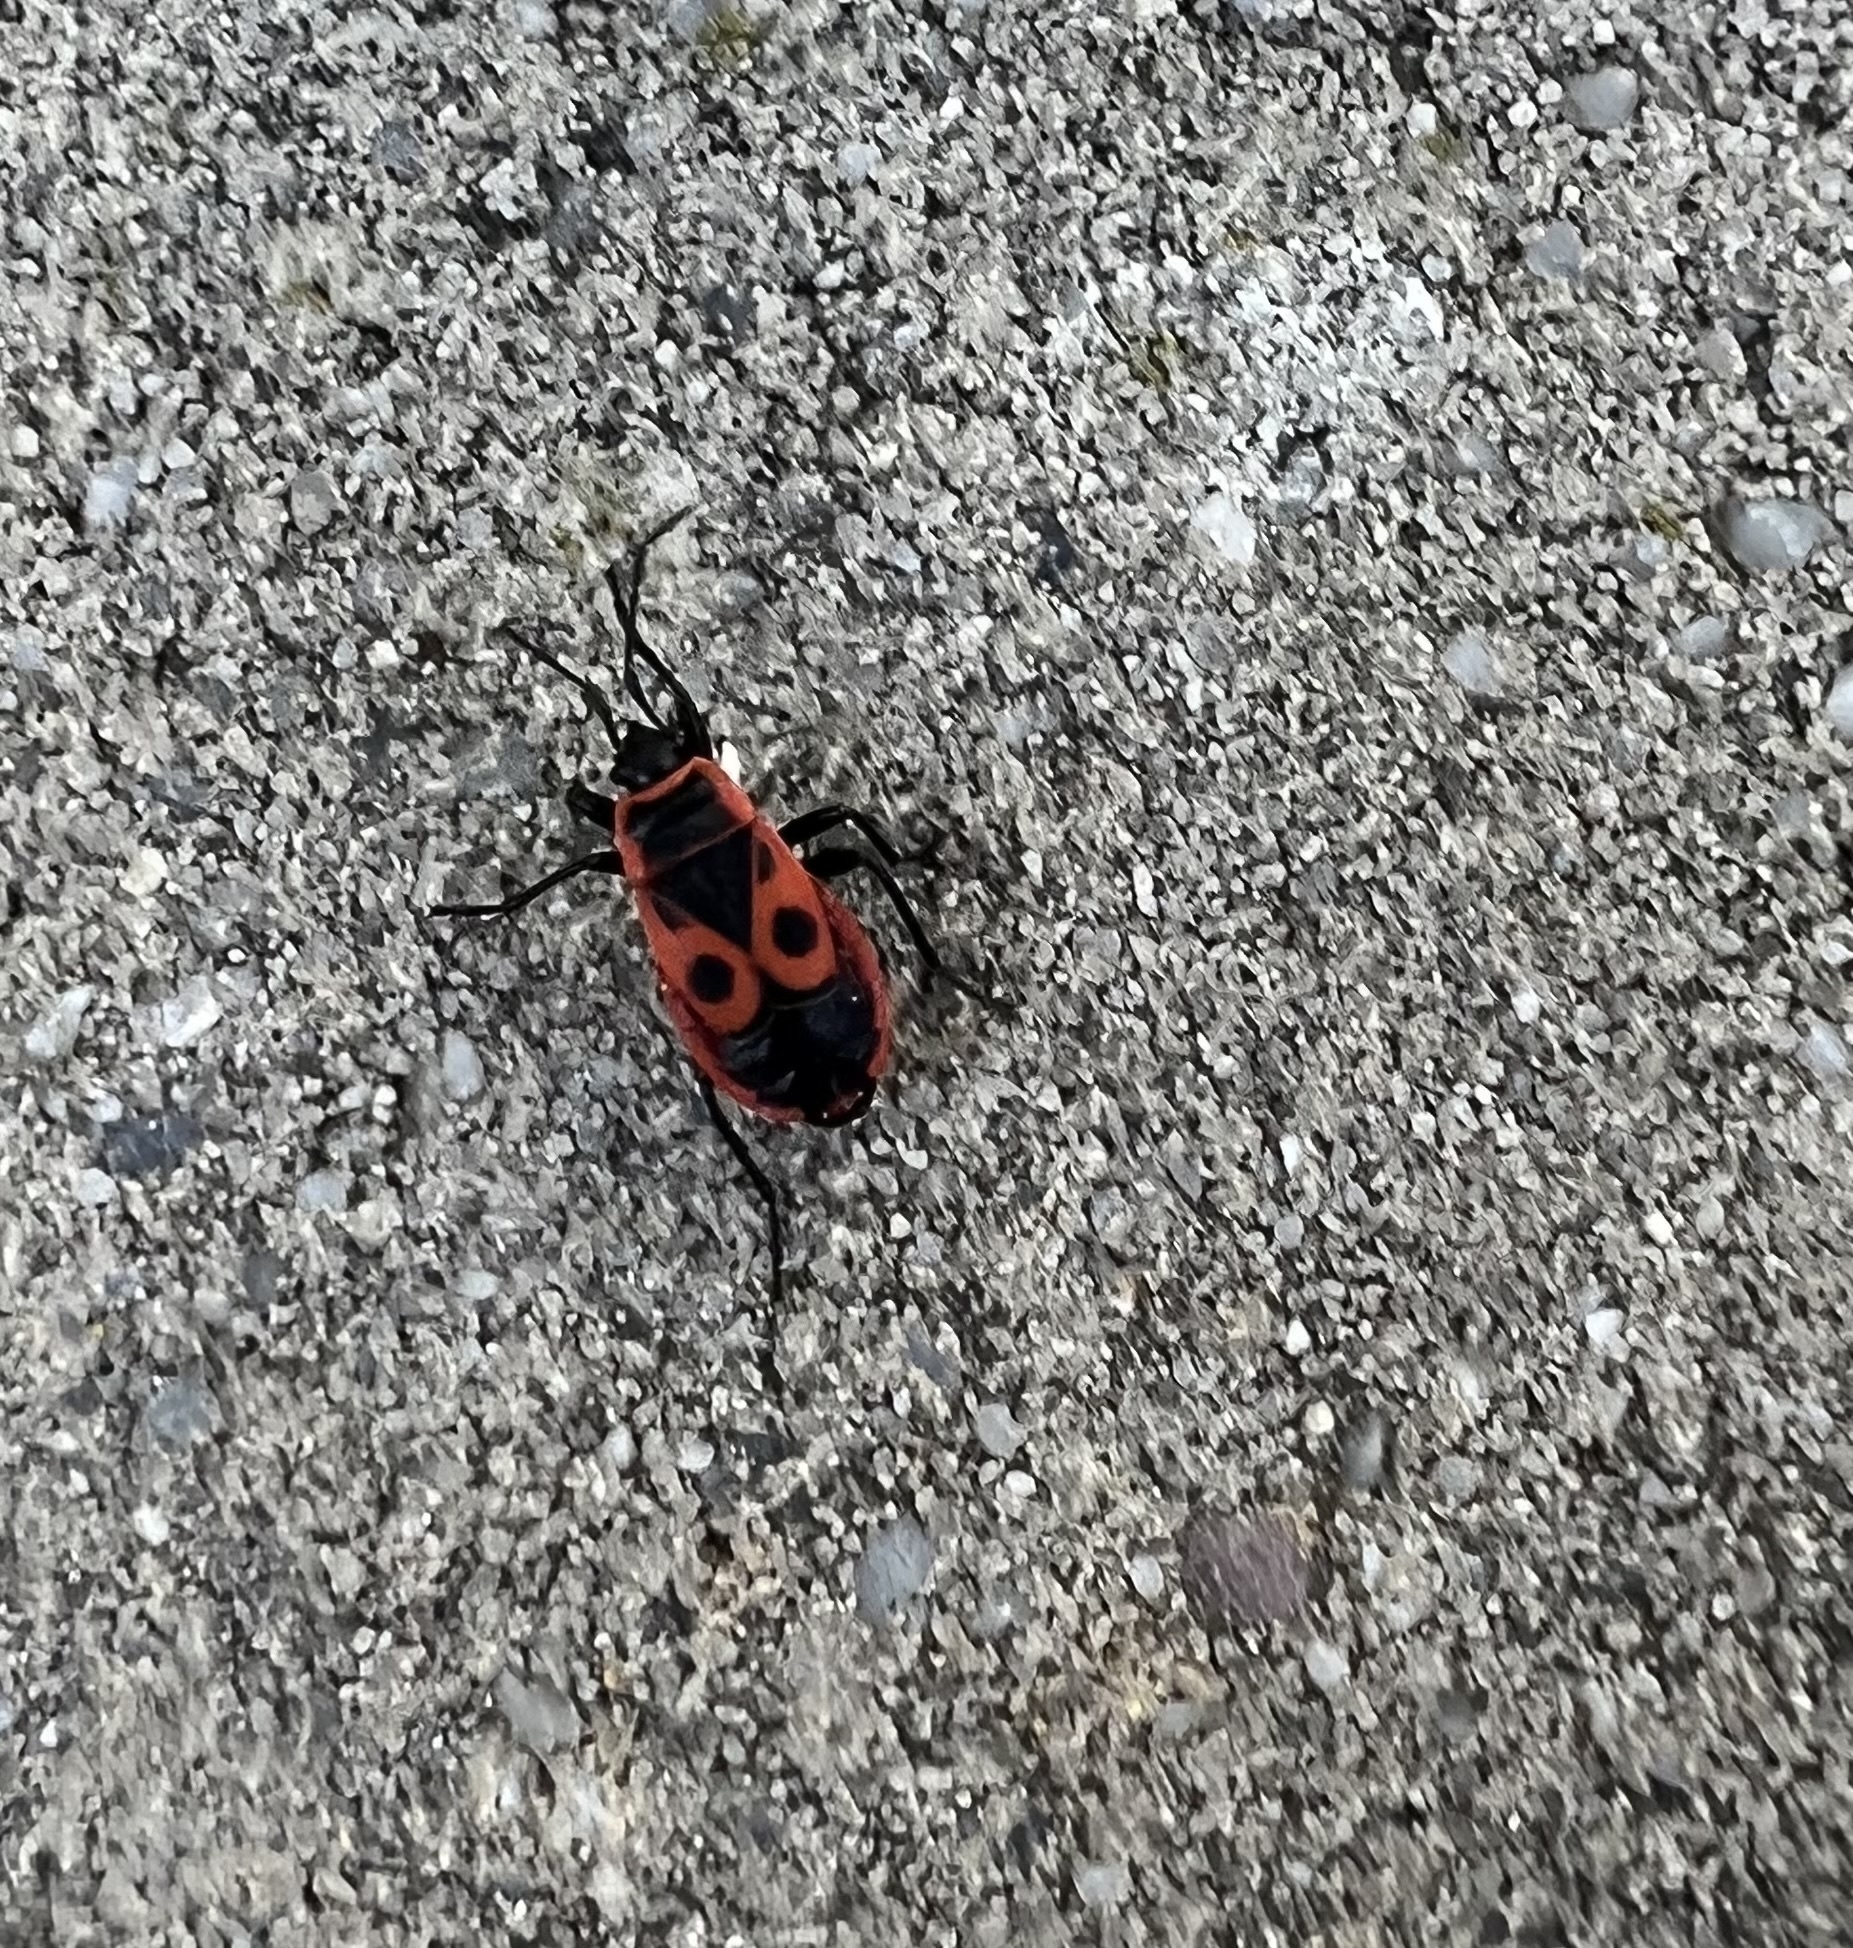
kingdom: Animalia
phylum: Arthropoda
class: Insecta
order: Hemiptera
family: Pyrrhocoridae
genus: Pyrrhocoris
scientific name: Pyrrhocoris apterus
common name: Firebug
